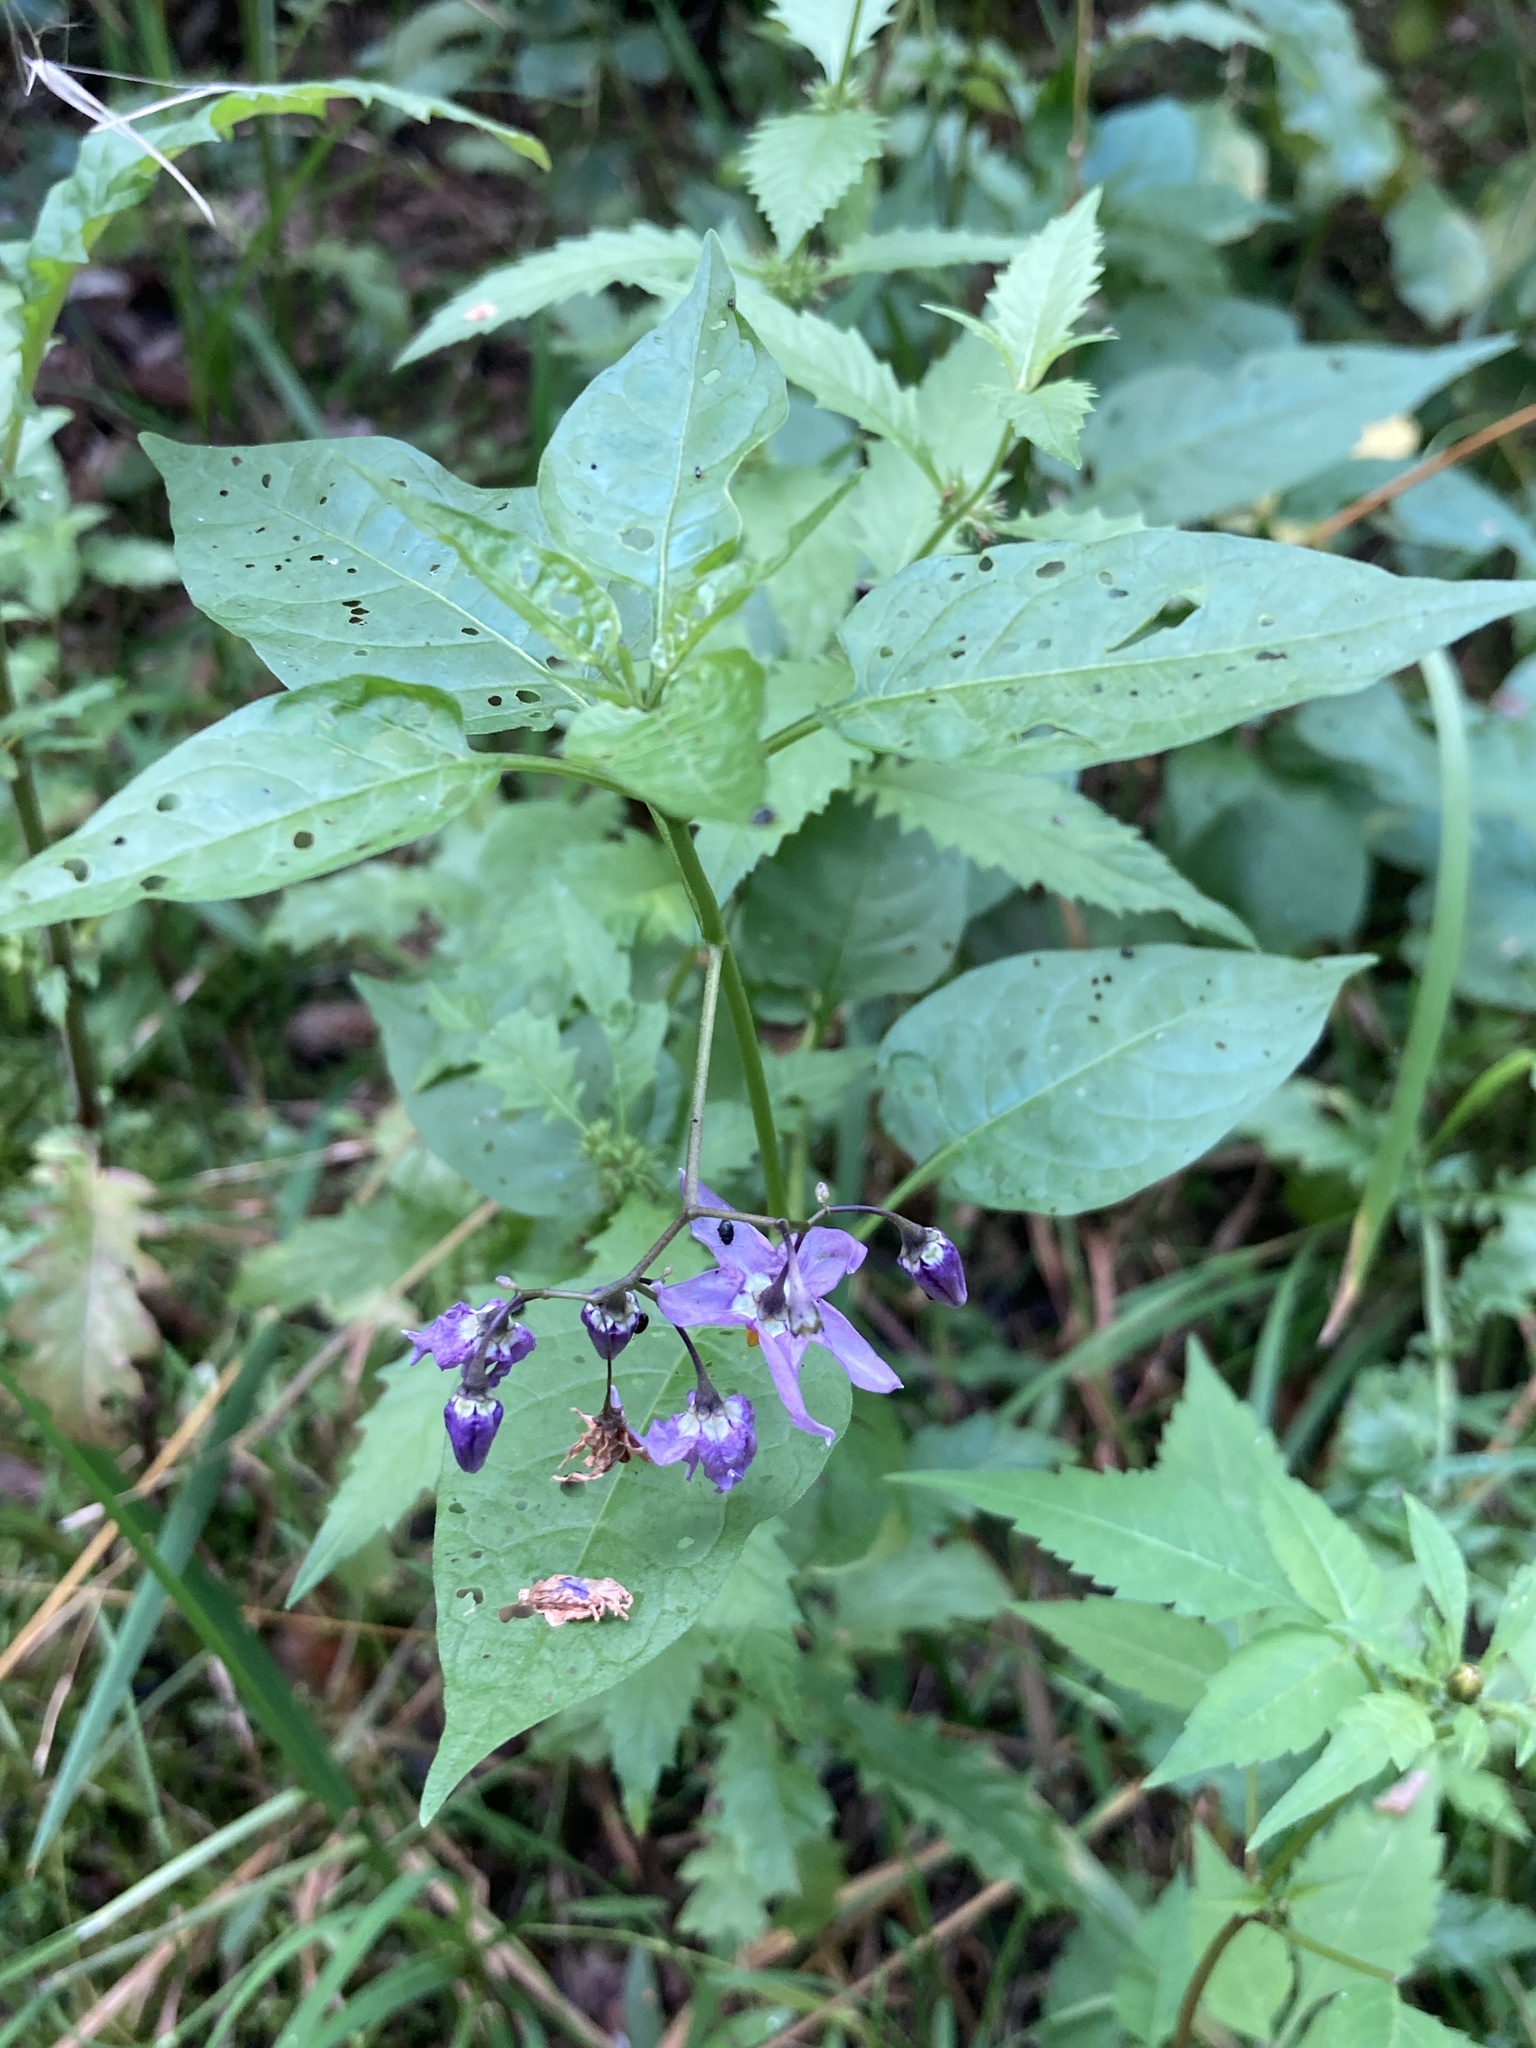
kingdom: Plantae
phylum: Tracheophyta
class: Magnoliopsida
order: Solanales
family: Solanaceae
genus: Solanum
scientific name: Solanum dulcamara
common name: Climbing nightshade
